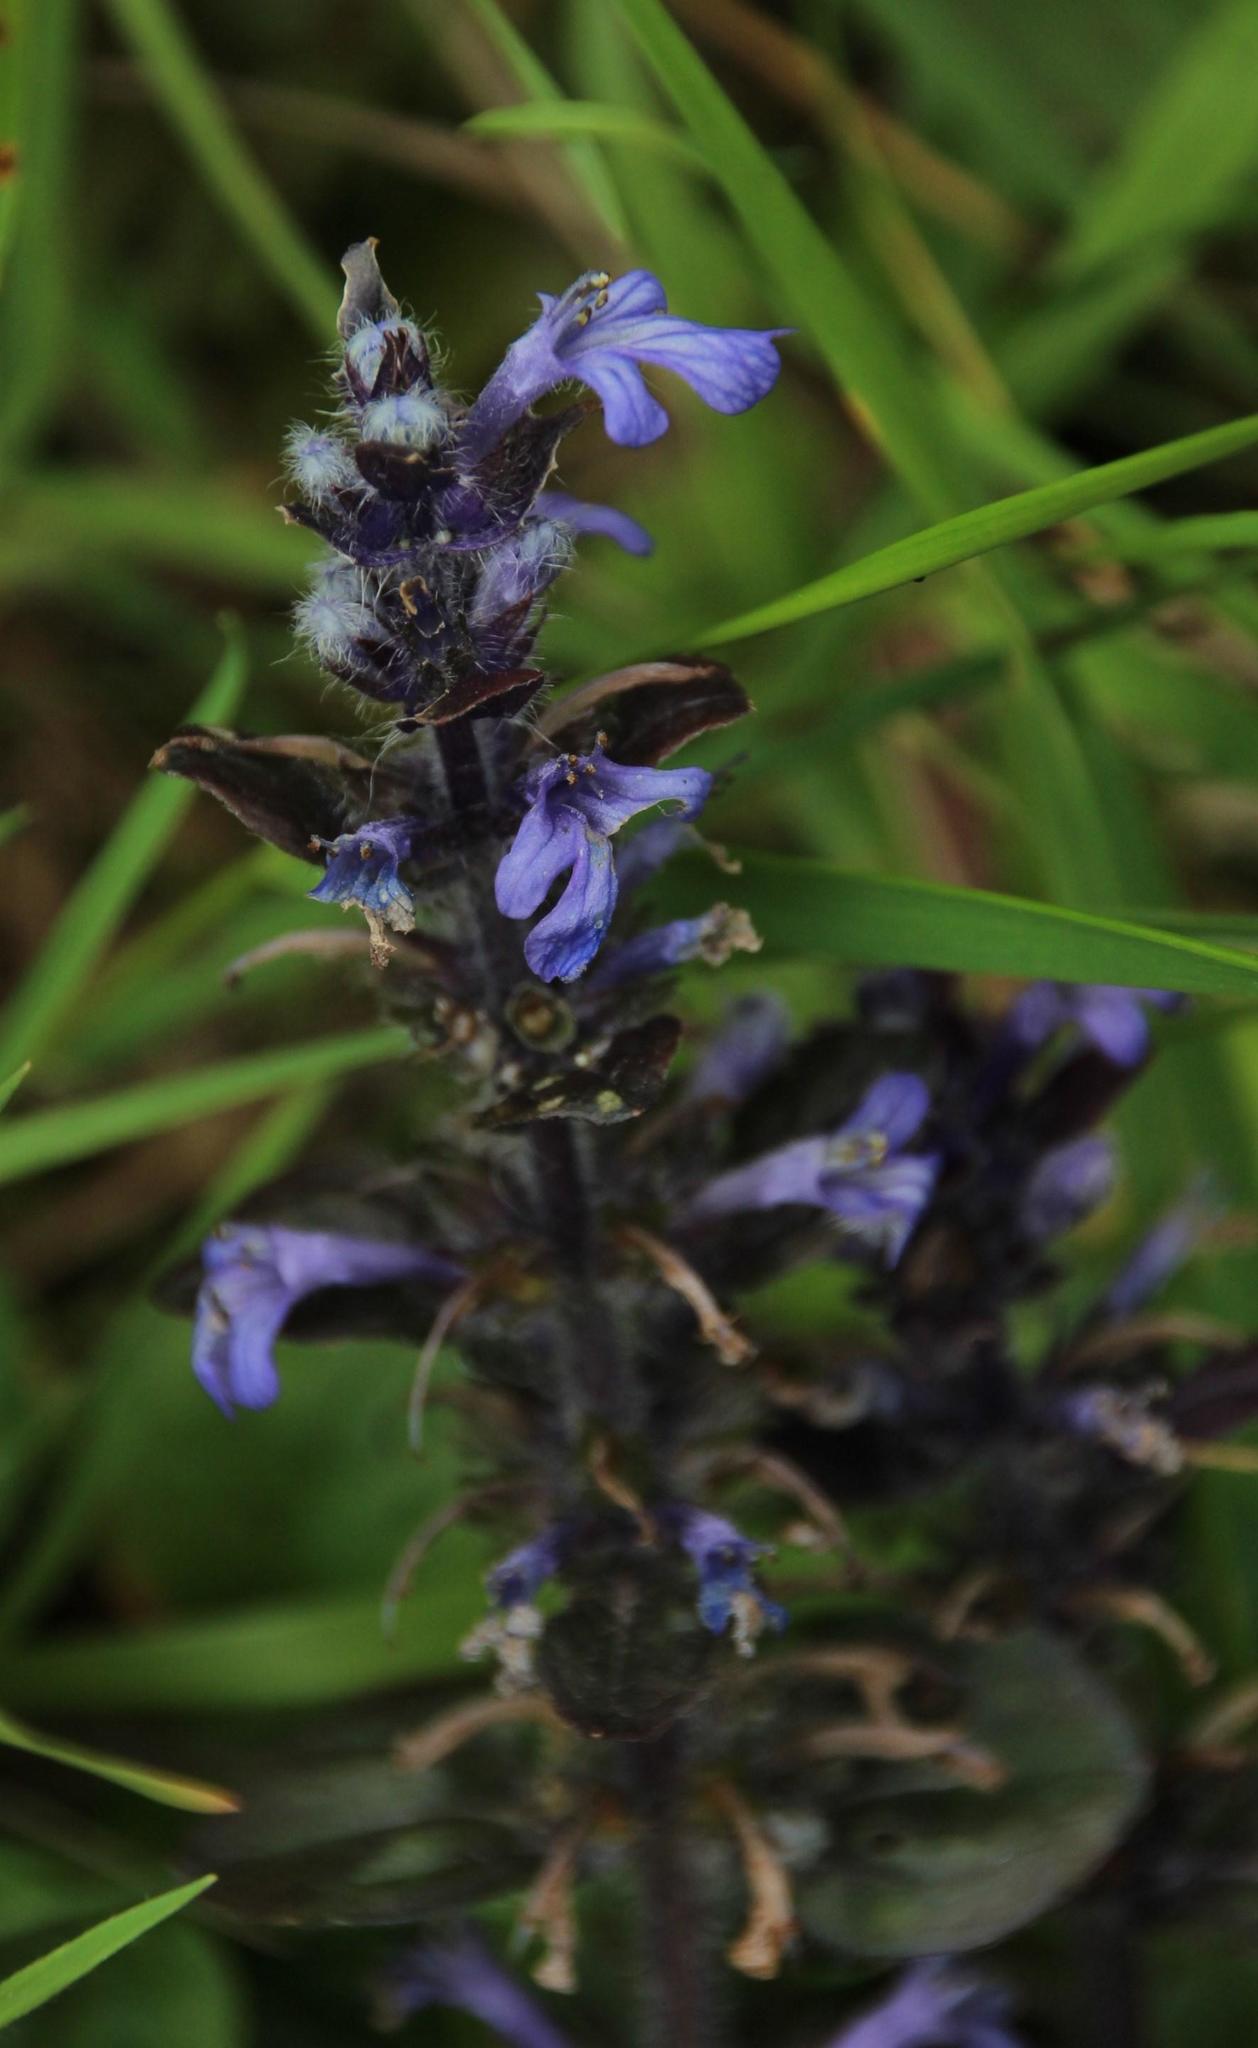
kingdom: Plantae
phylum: Tracheophyta
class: Magnoliopsida
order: Lamiales
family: Lamiaceae
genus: Ajuga
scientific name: Ajuga reptans
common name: Bugle
